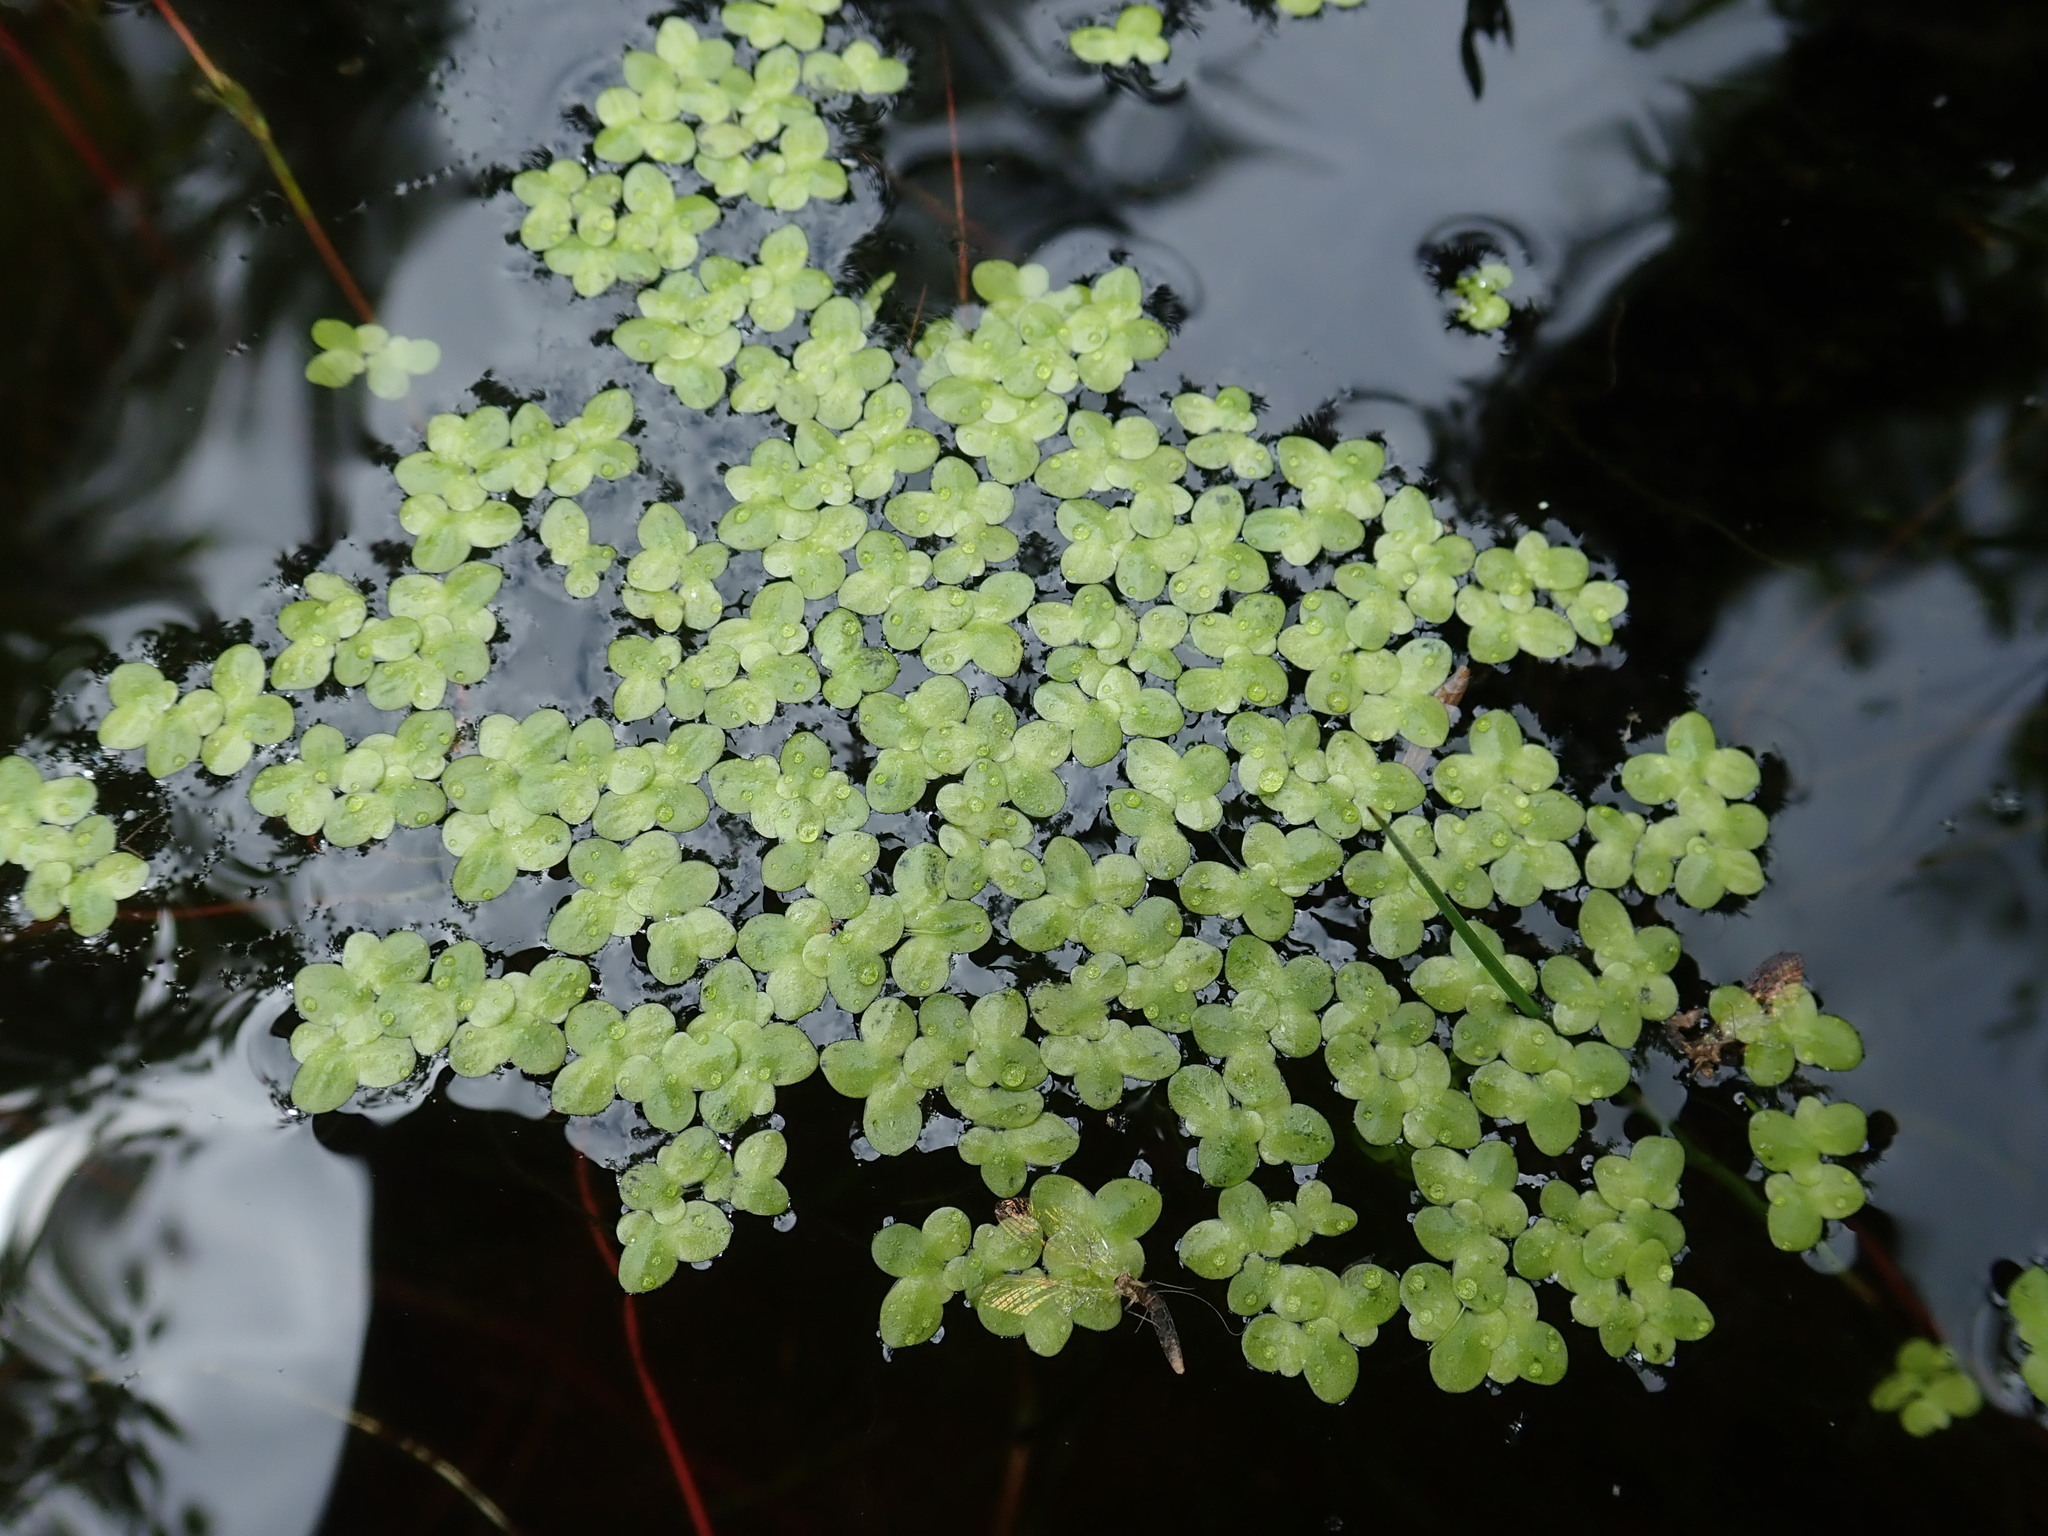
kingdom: Plantae
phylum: Tracheophyta
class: Liliopsida
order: Alismatales
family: Araceae
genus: Lemna
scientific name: Lemna minor
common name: Common duckweed
